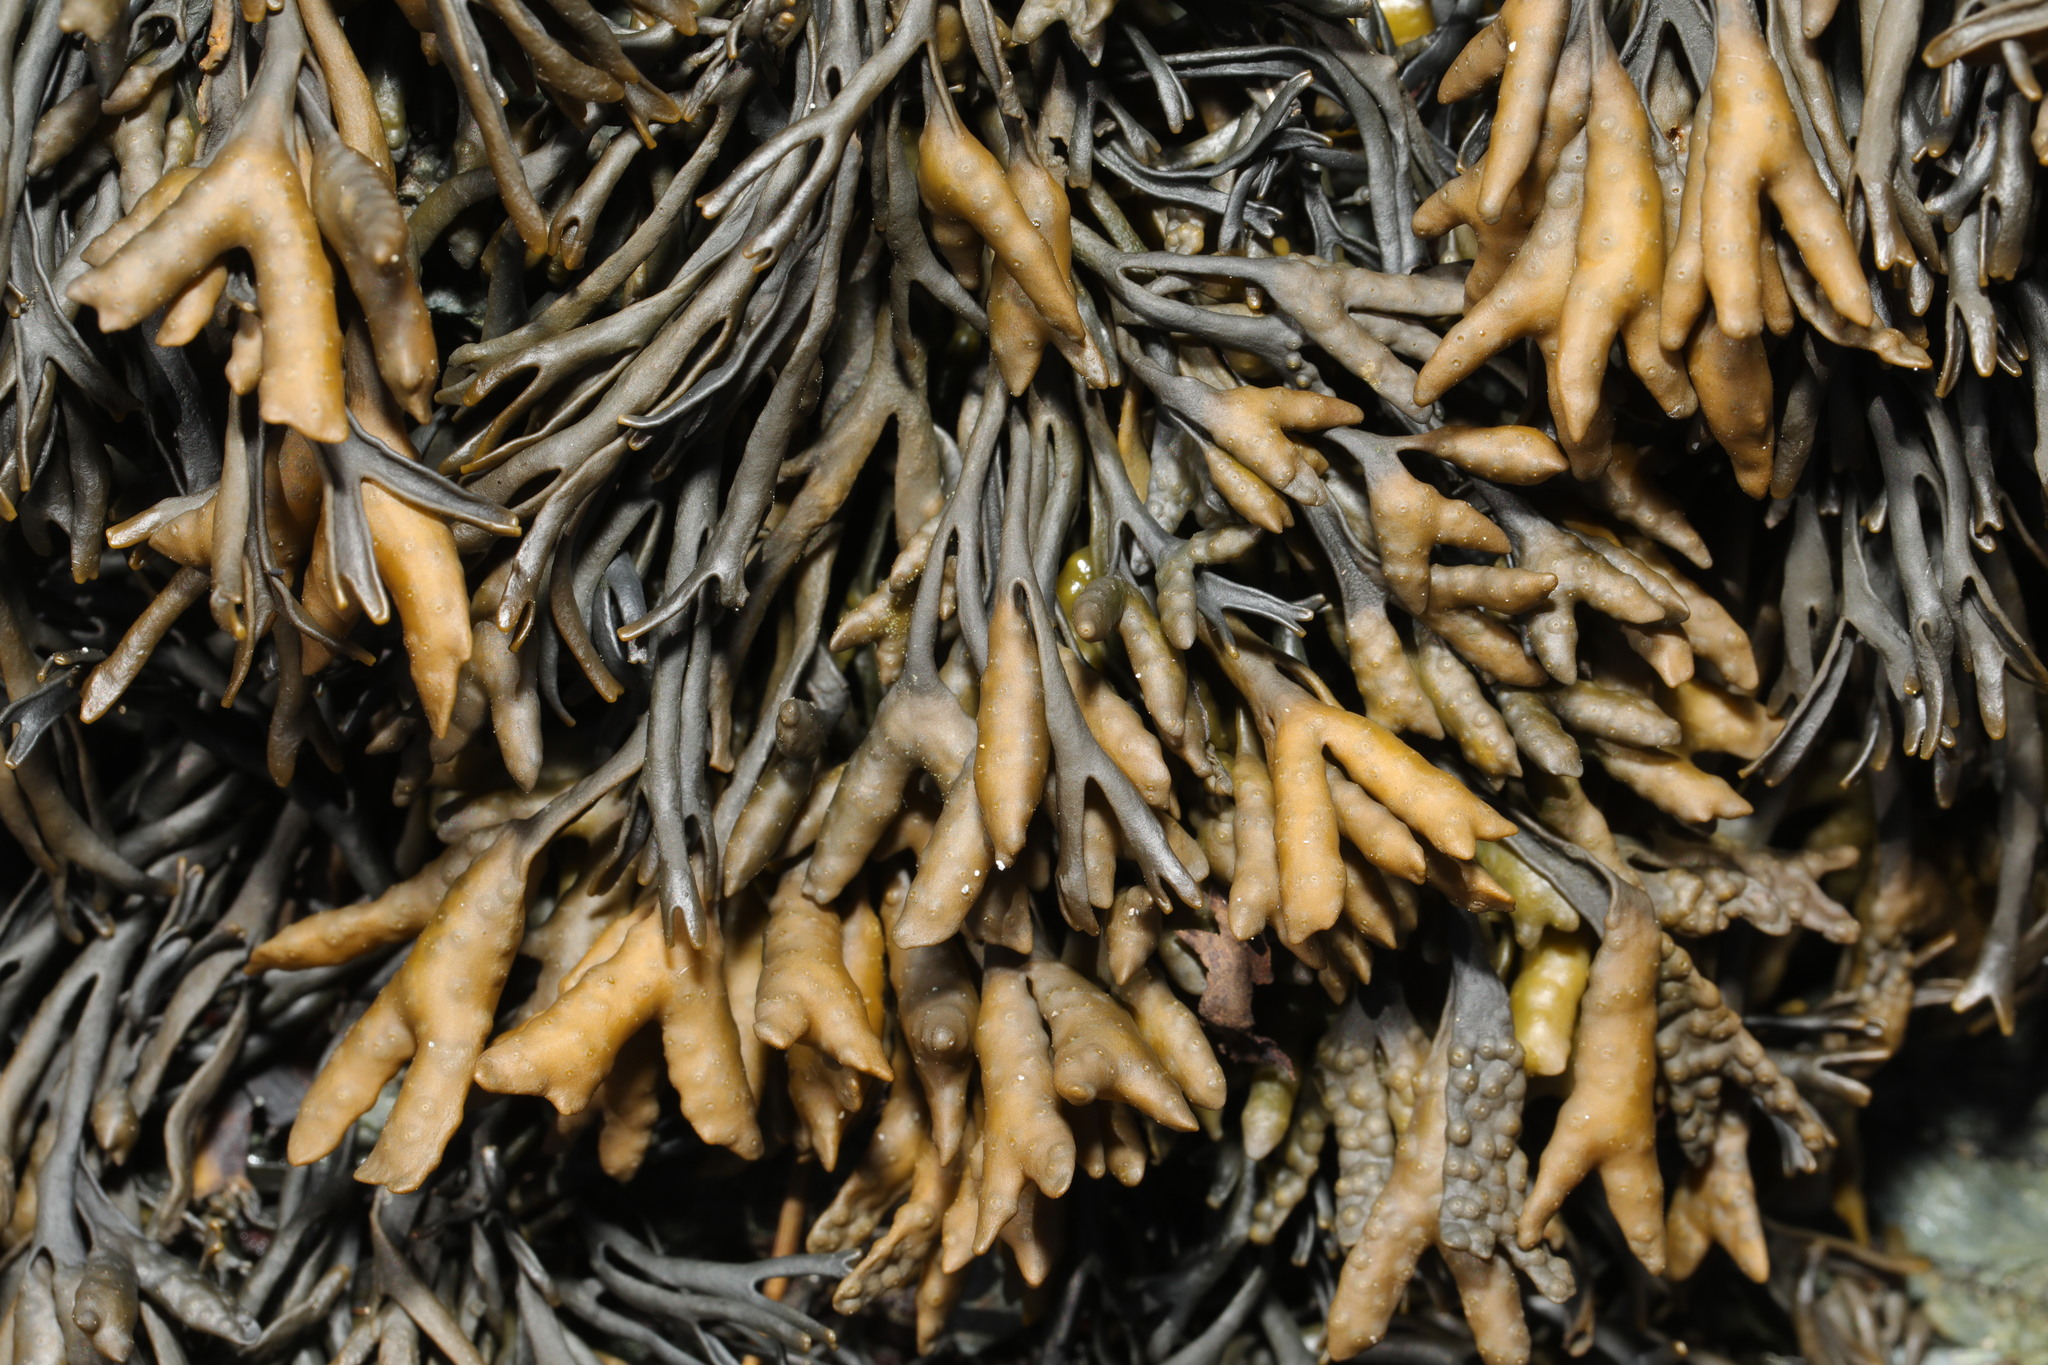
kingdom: Chromista
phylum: Ochrophyta
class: Phaeophyceae
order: Fucales
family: Fucaceae
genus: Pelvetia
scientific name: Pelvetia canaliculata
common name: Channelled wrack
